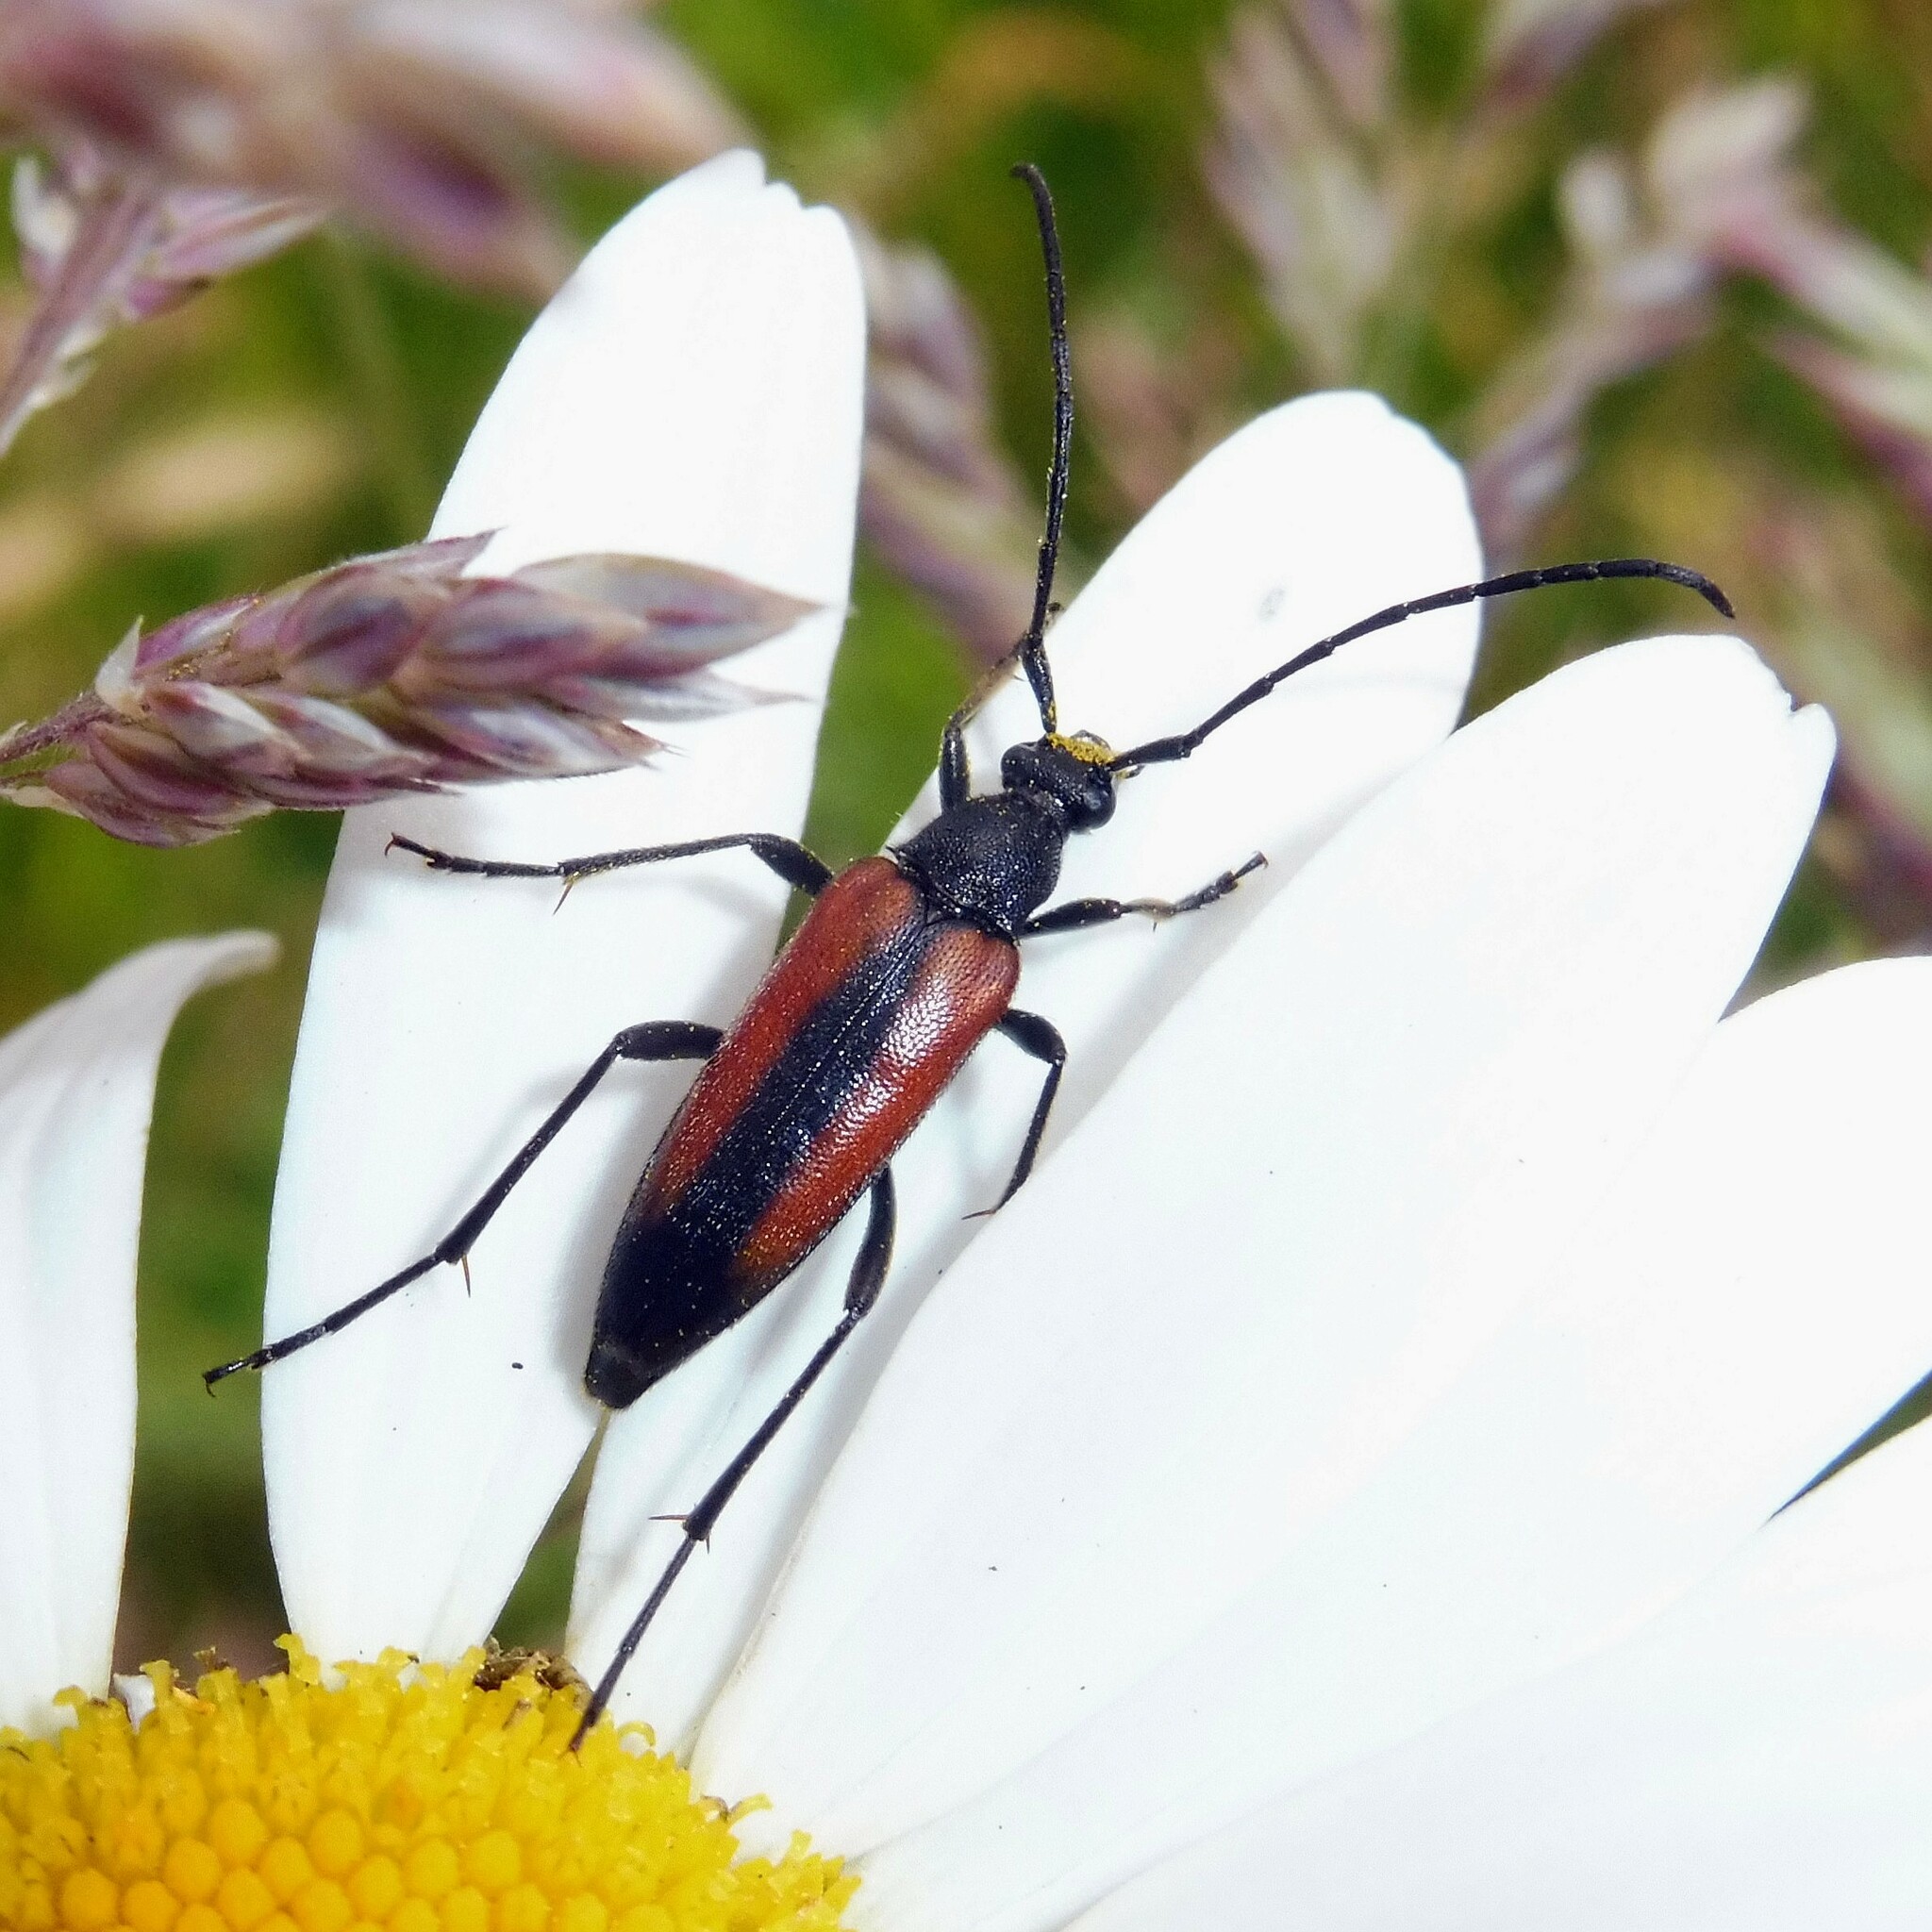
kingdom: Animalia
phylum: Arthropoda
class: Insecta
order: Coleoptera
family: Cerambycidae
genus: Stenurella
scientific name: Stenurella melanura
